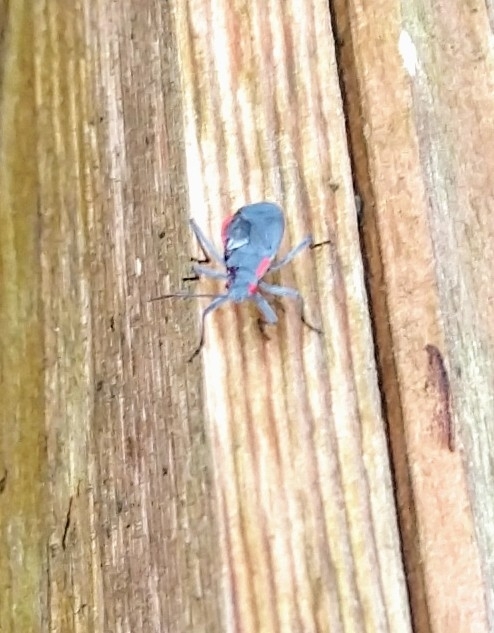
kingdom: Animalia
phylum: Arthropoda
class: Insecta
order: Hemiptera
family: Rhopalidae
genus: Jadera
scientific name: Jadera haematoloma
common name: Red-shouldered bug
